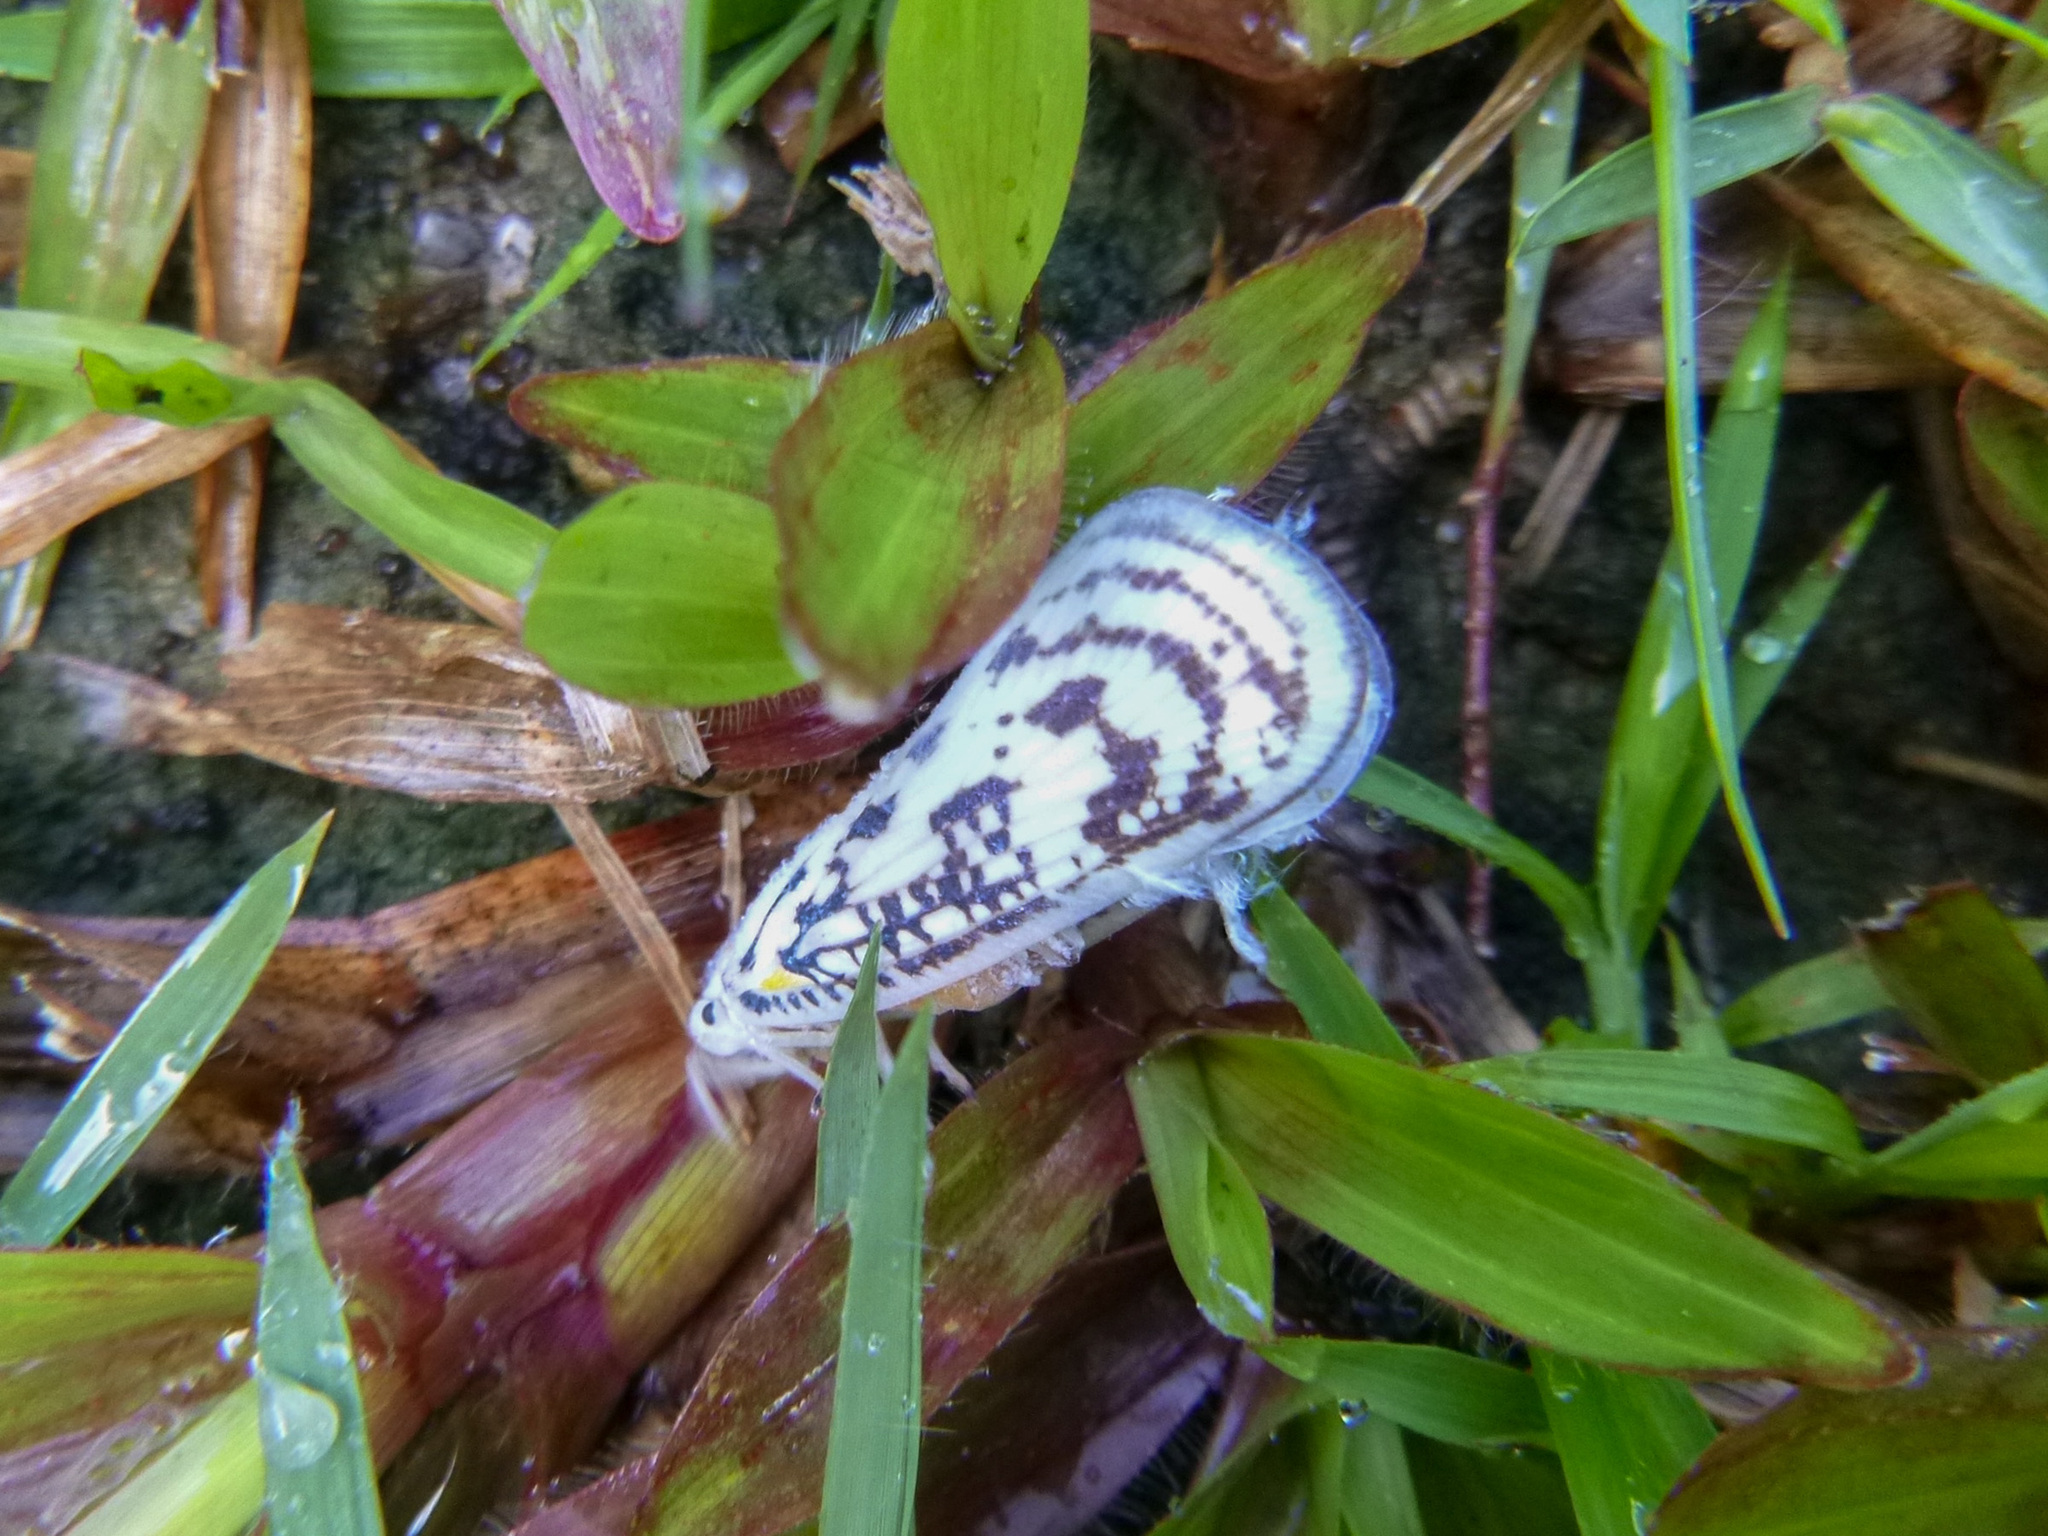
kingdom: Animalia
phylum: Arthropoda
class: Insecta
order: Hemiptera
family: Flatidae
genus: Copsyrna
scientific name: Copsyrna maculata
